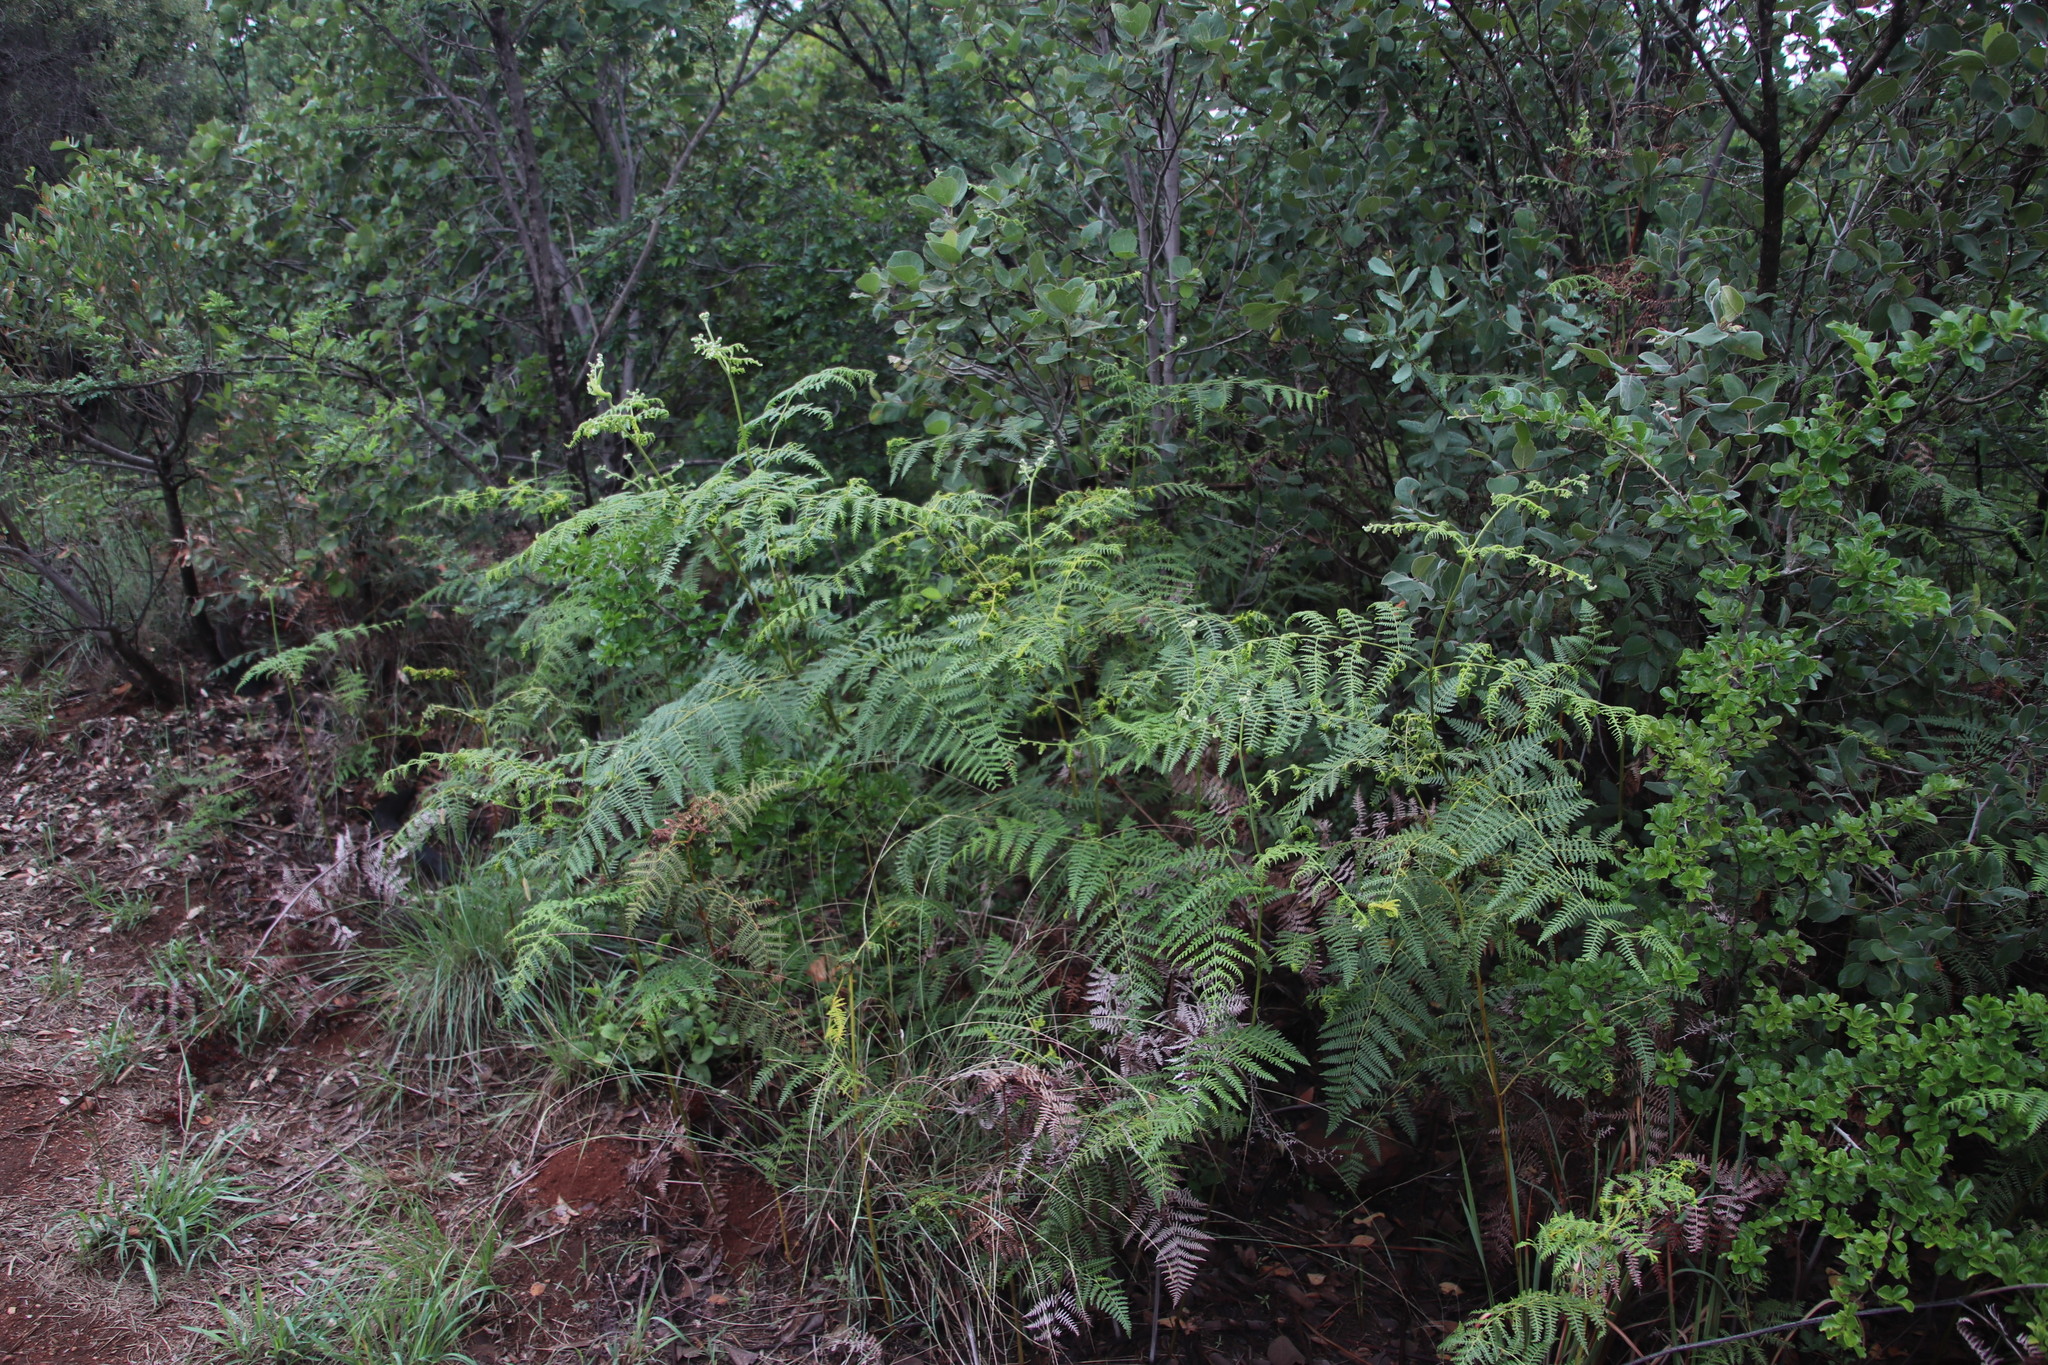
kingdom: Plantae
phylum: Tracheophyta
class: Polypodiopsida
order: Polypodiales
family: Dennstaedtiaceae
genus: Pteridium
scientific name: Pteridium aquilinum
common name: Bracken
